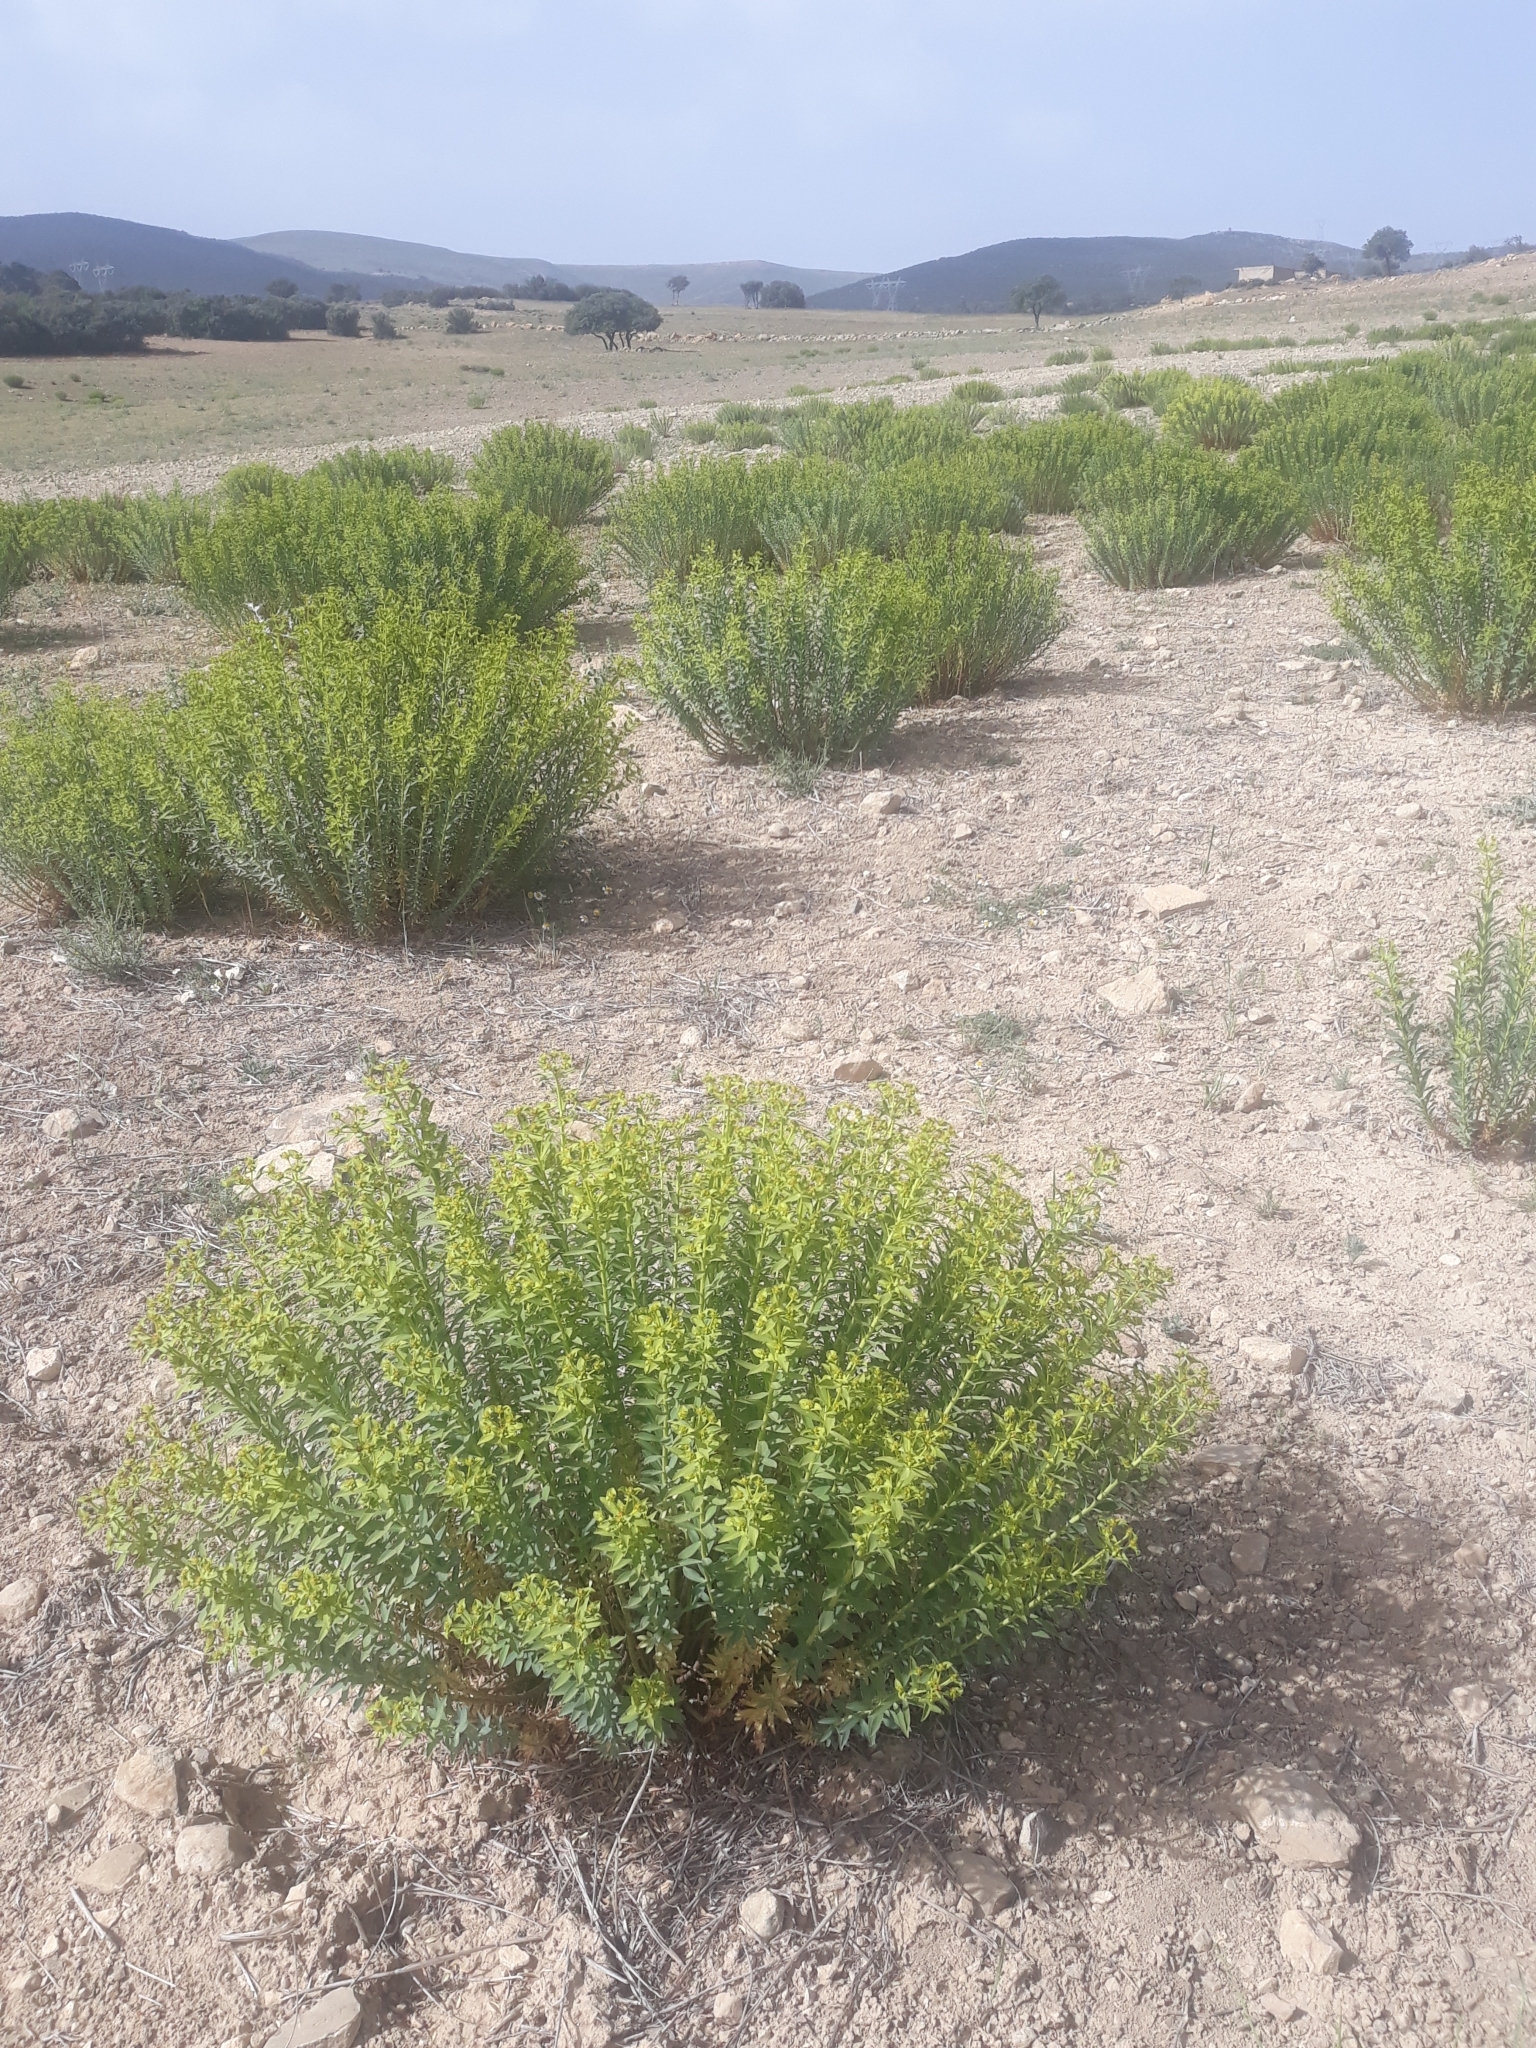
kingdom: Plantae
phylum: Tracheophyta
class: Magnoliopsida
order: Malpighiales
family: Euphorbiaceae
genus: Euphorbia
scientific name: Euphorbia nicaeensis
